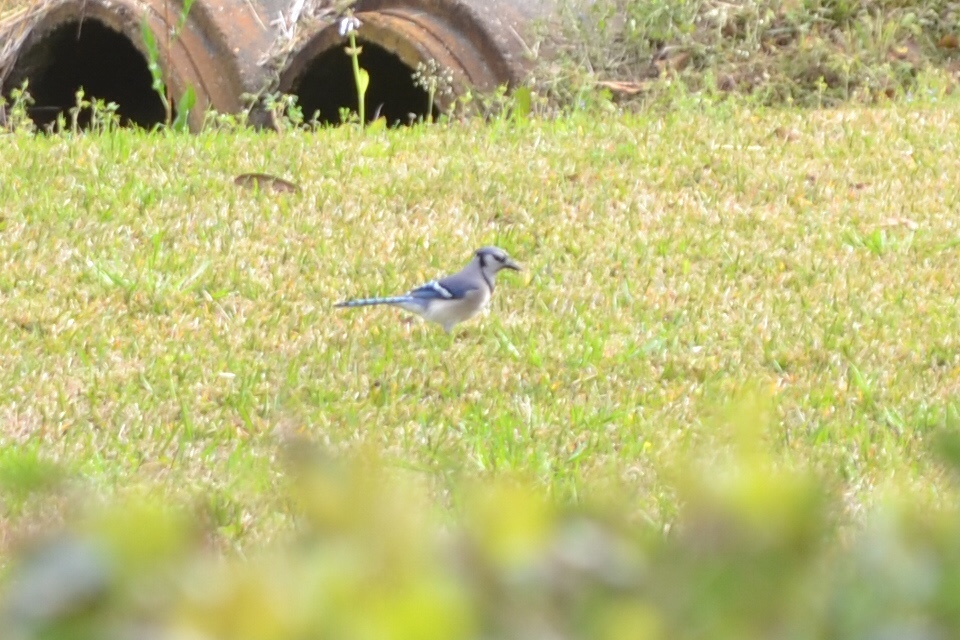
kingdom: Animalia
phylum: Chordata
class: Aves
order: Passeriformes
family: Corvidae
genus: Cyanocitta
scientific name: Cyanocitta cristata
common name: Blue jay
